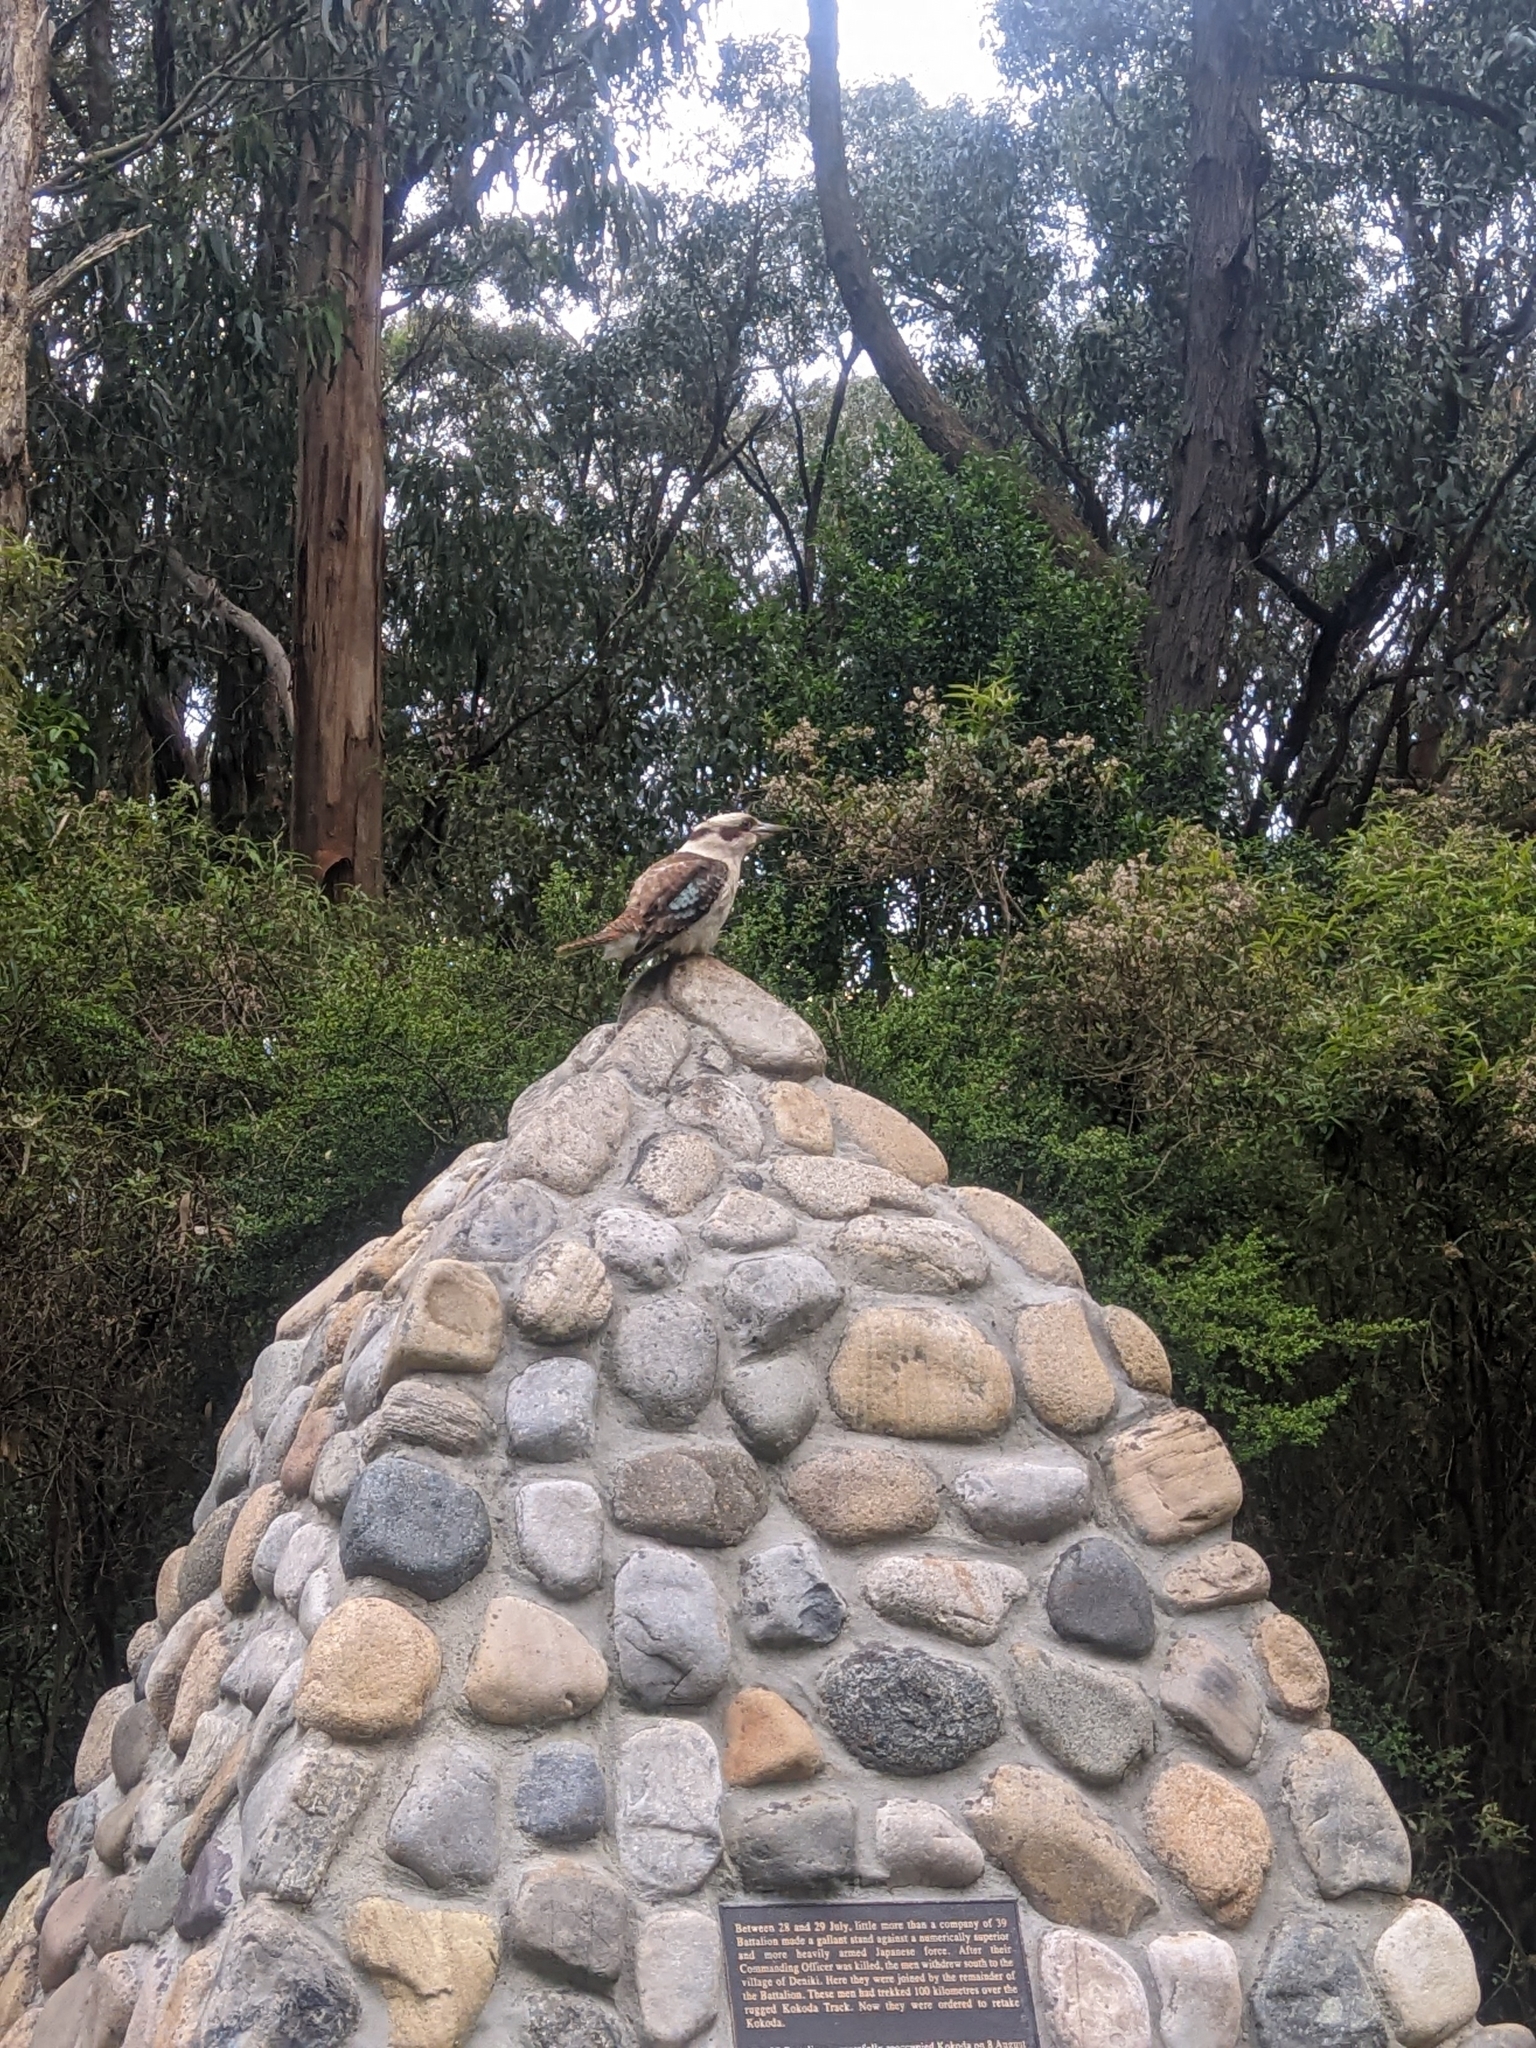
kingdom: Animalia
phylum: Chordata
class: Aves
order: Coraciiformes
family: Alcedinidae
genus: Dacelo
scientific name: Dacelo novaeguineae
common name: Laughing kookaburra
